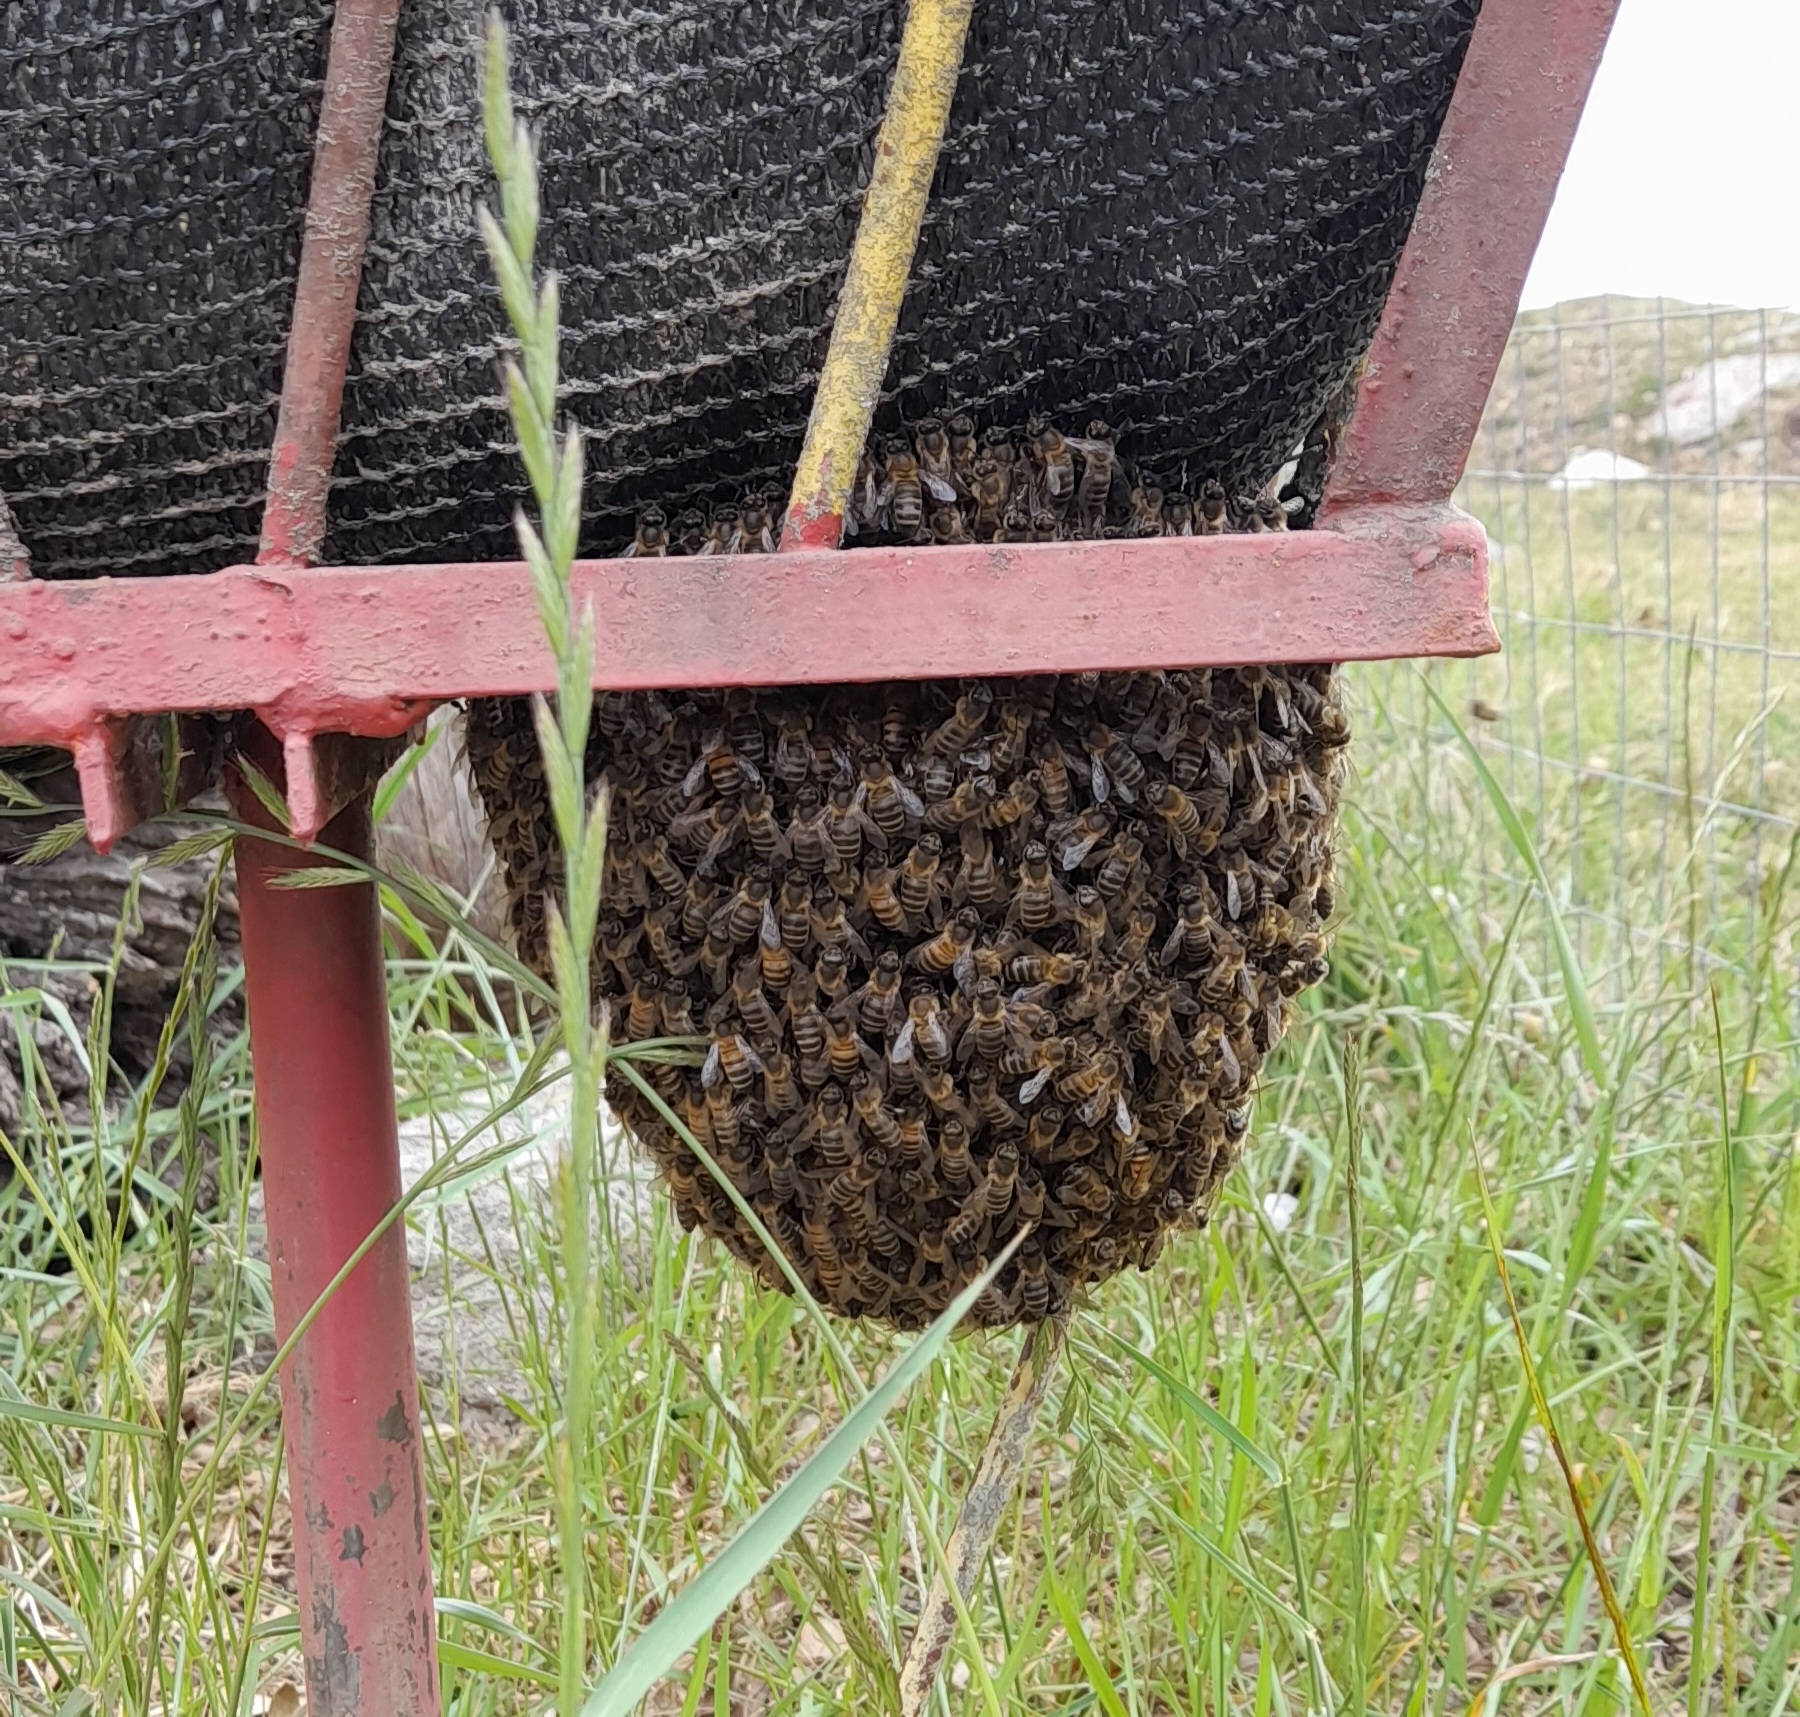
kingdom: Animalia
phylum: Arthropoda
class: Insecta
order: Hymenoptera
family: Apidae
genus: Apis
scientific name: Apis mellifera
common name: Honey bee
